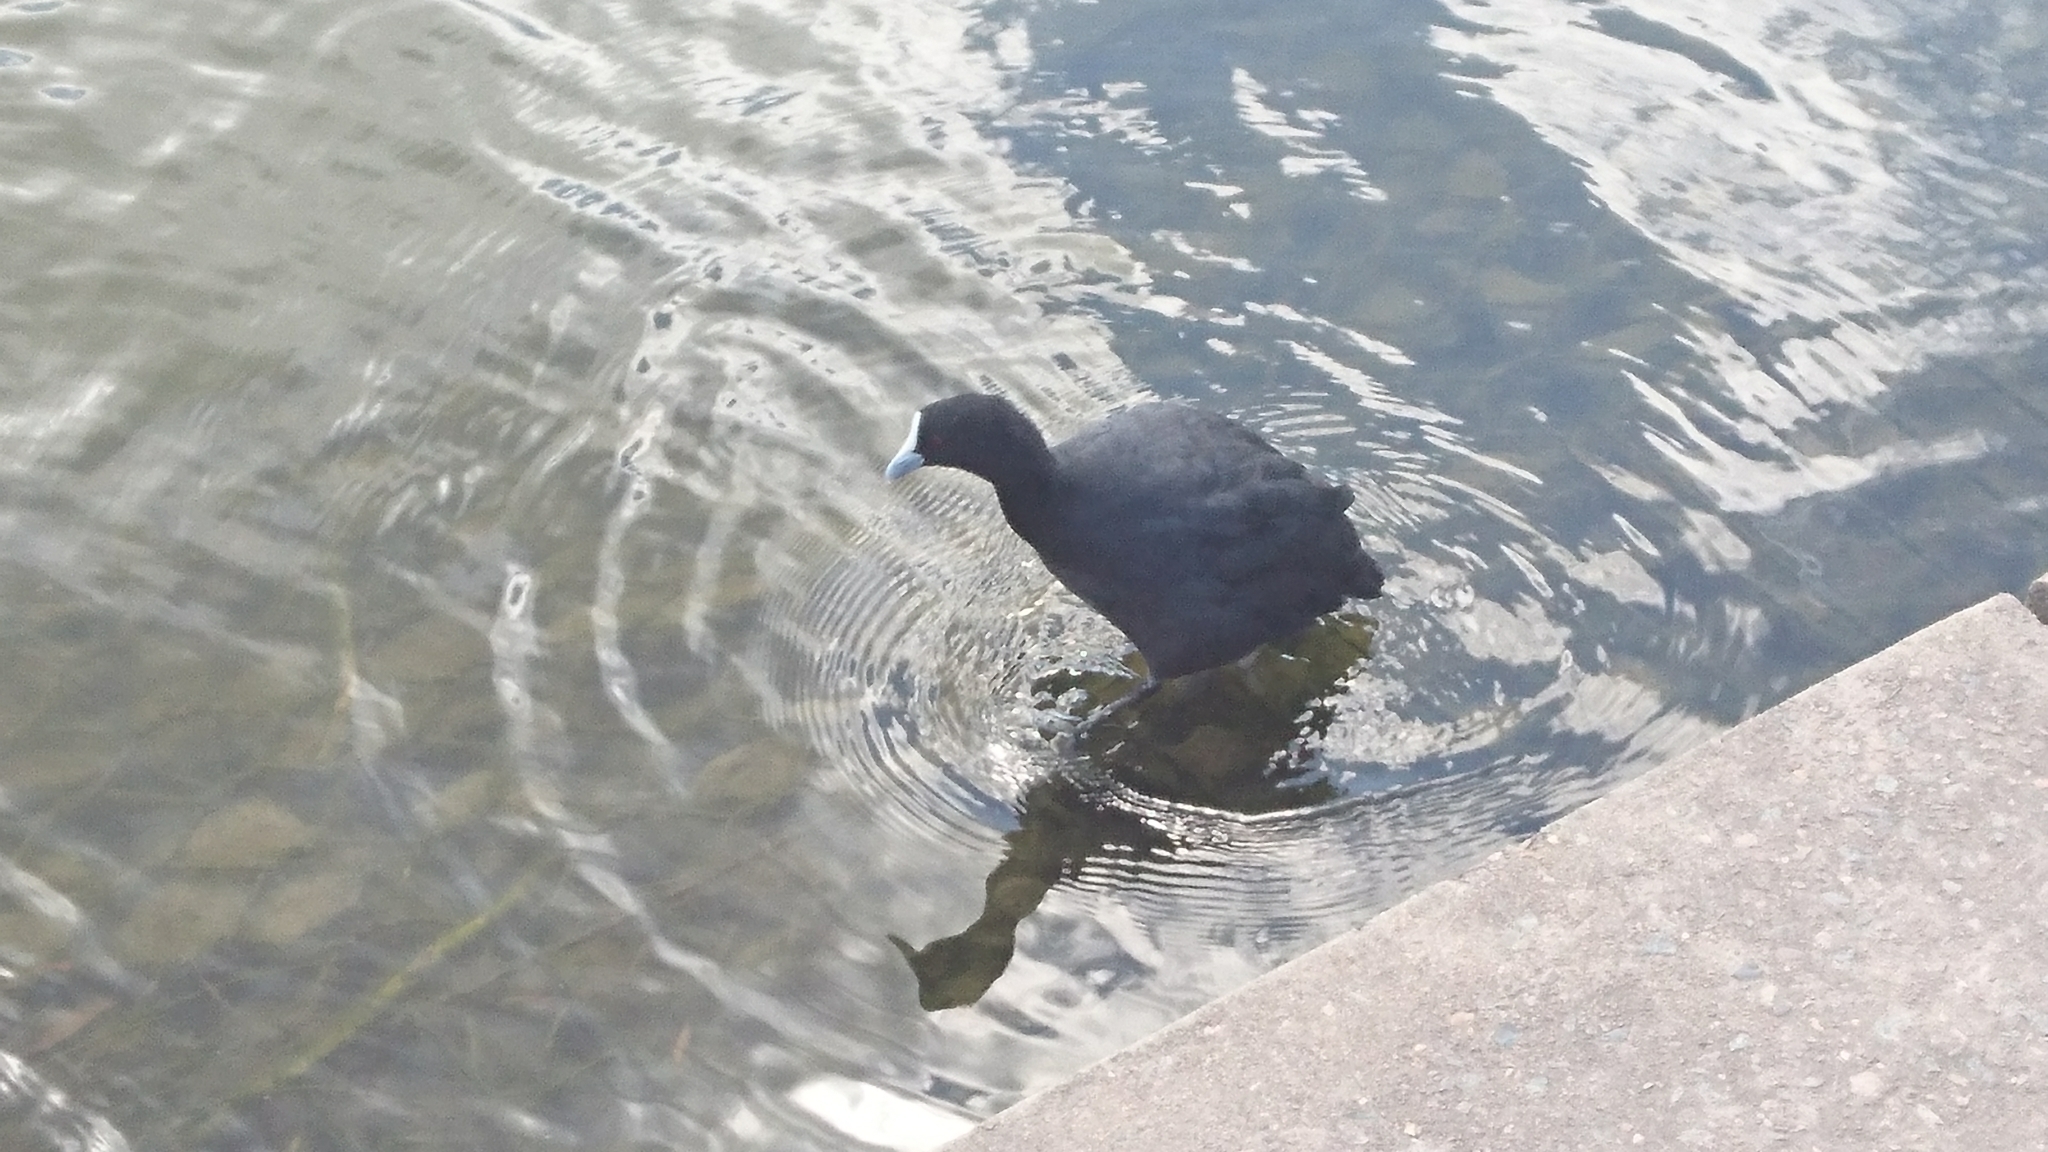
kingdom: Animalia
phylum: Chordata
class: Aves
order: Gruiformes
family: Rallidae
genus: Fulica
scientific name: Fulica atra
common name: Eurasian coot
